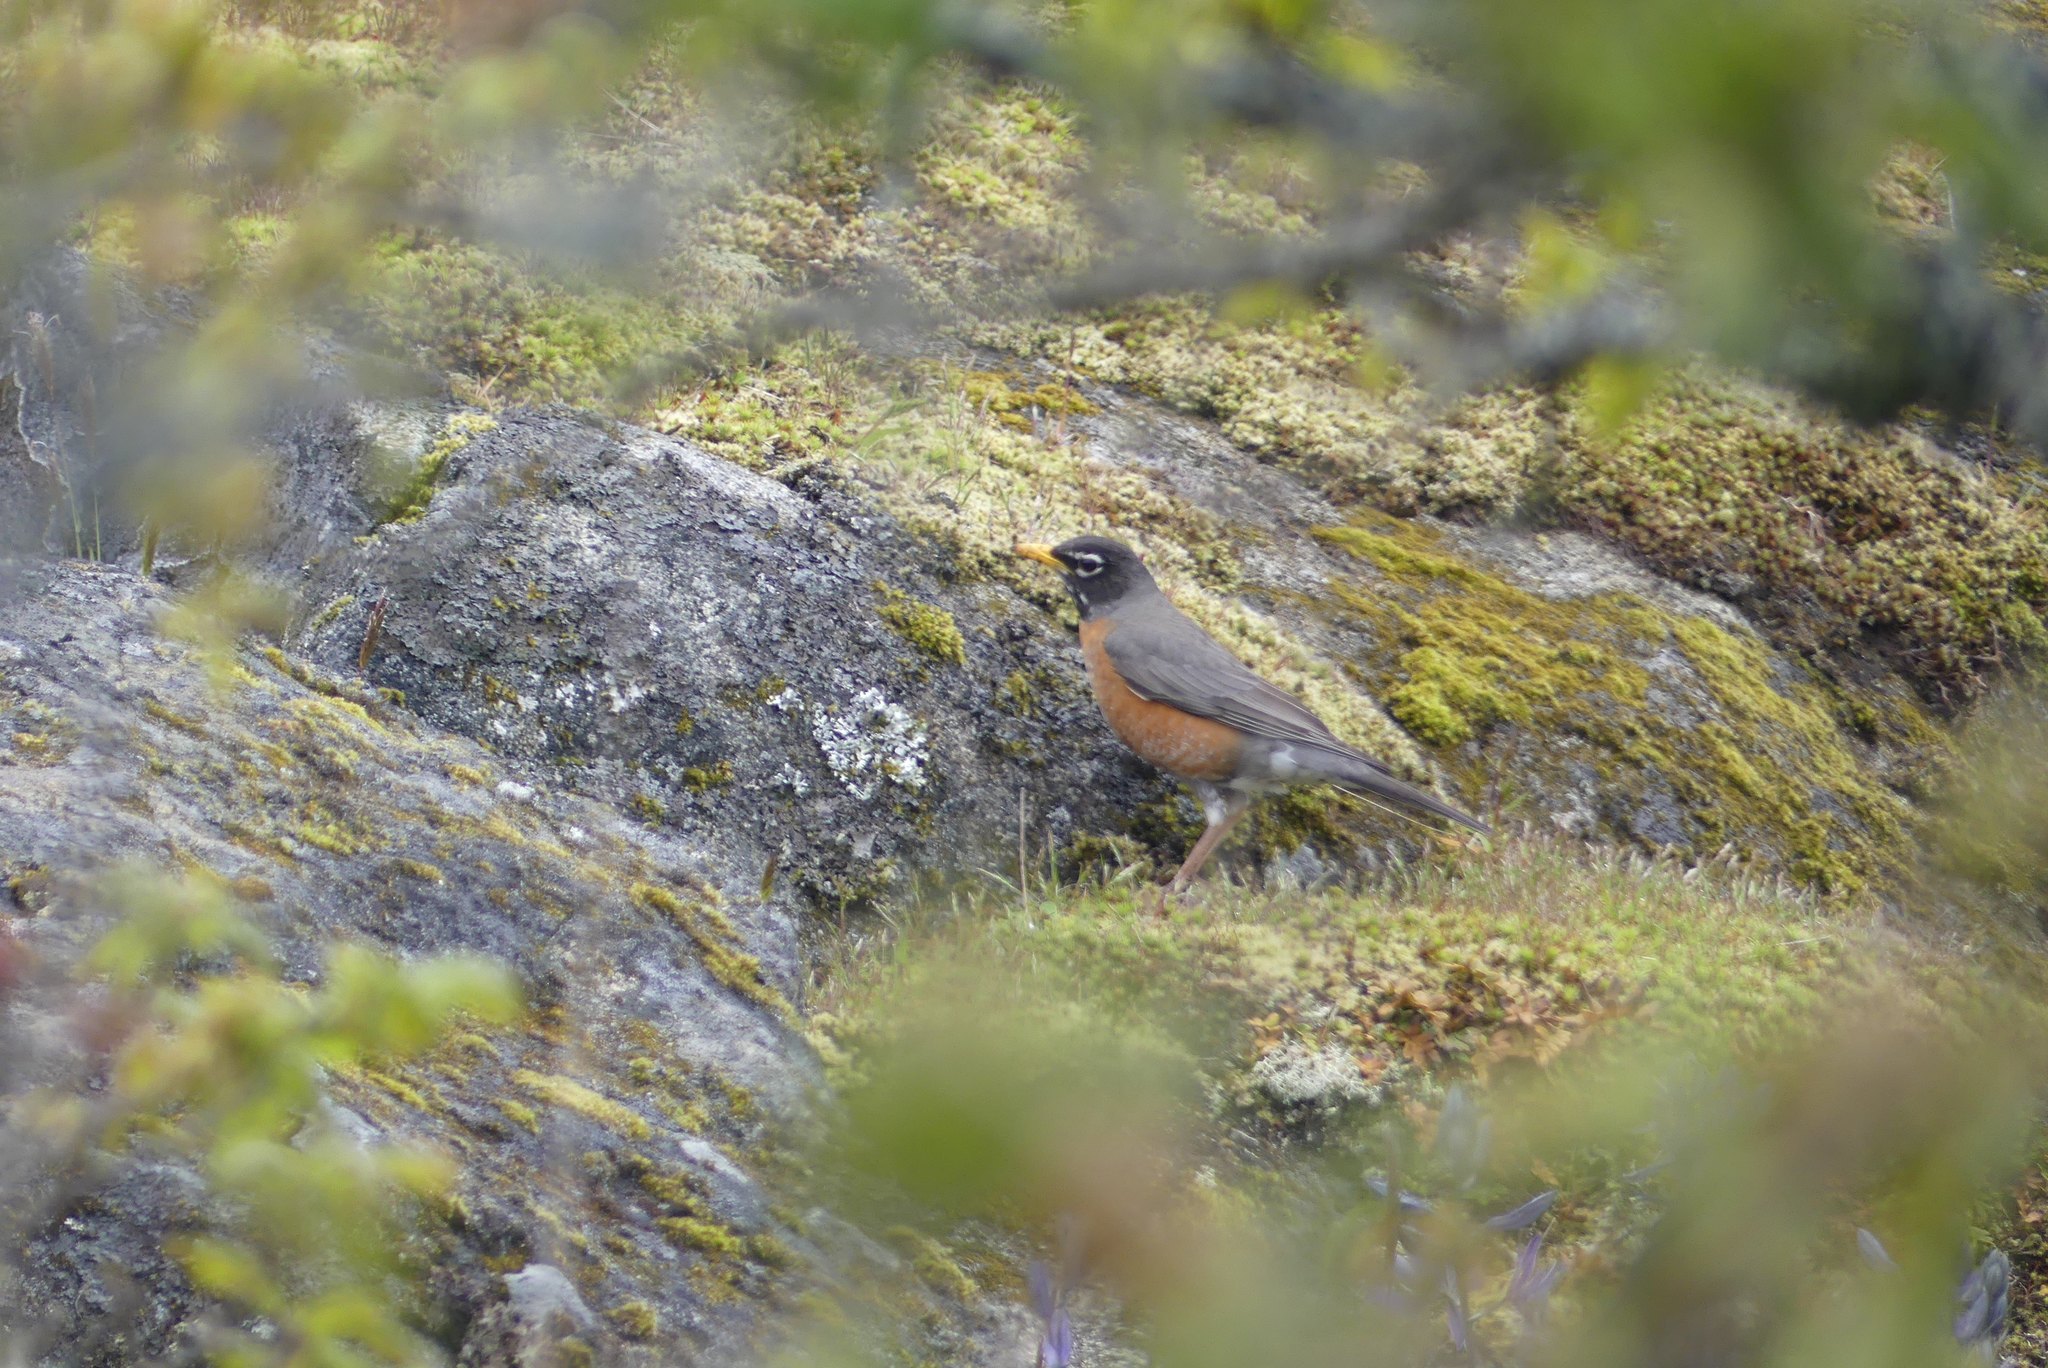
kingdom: Animalia
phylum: Chordata
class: Aves
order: Passeriformes
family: Turdidae
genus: Turdus
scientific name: Turdus migratorius
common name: American robin
